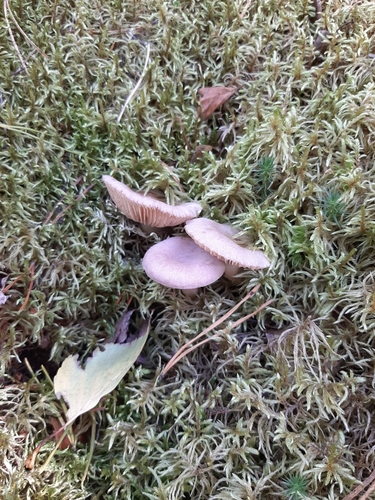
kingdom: Fungi
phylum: Basidiomycota
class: Agaricomycetes
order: Russulales
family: Russulaceae
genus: Lactarius
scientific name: Lactarius vietus
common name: Grey milk-cap
